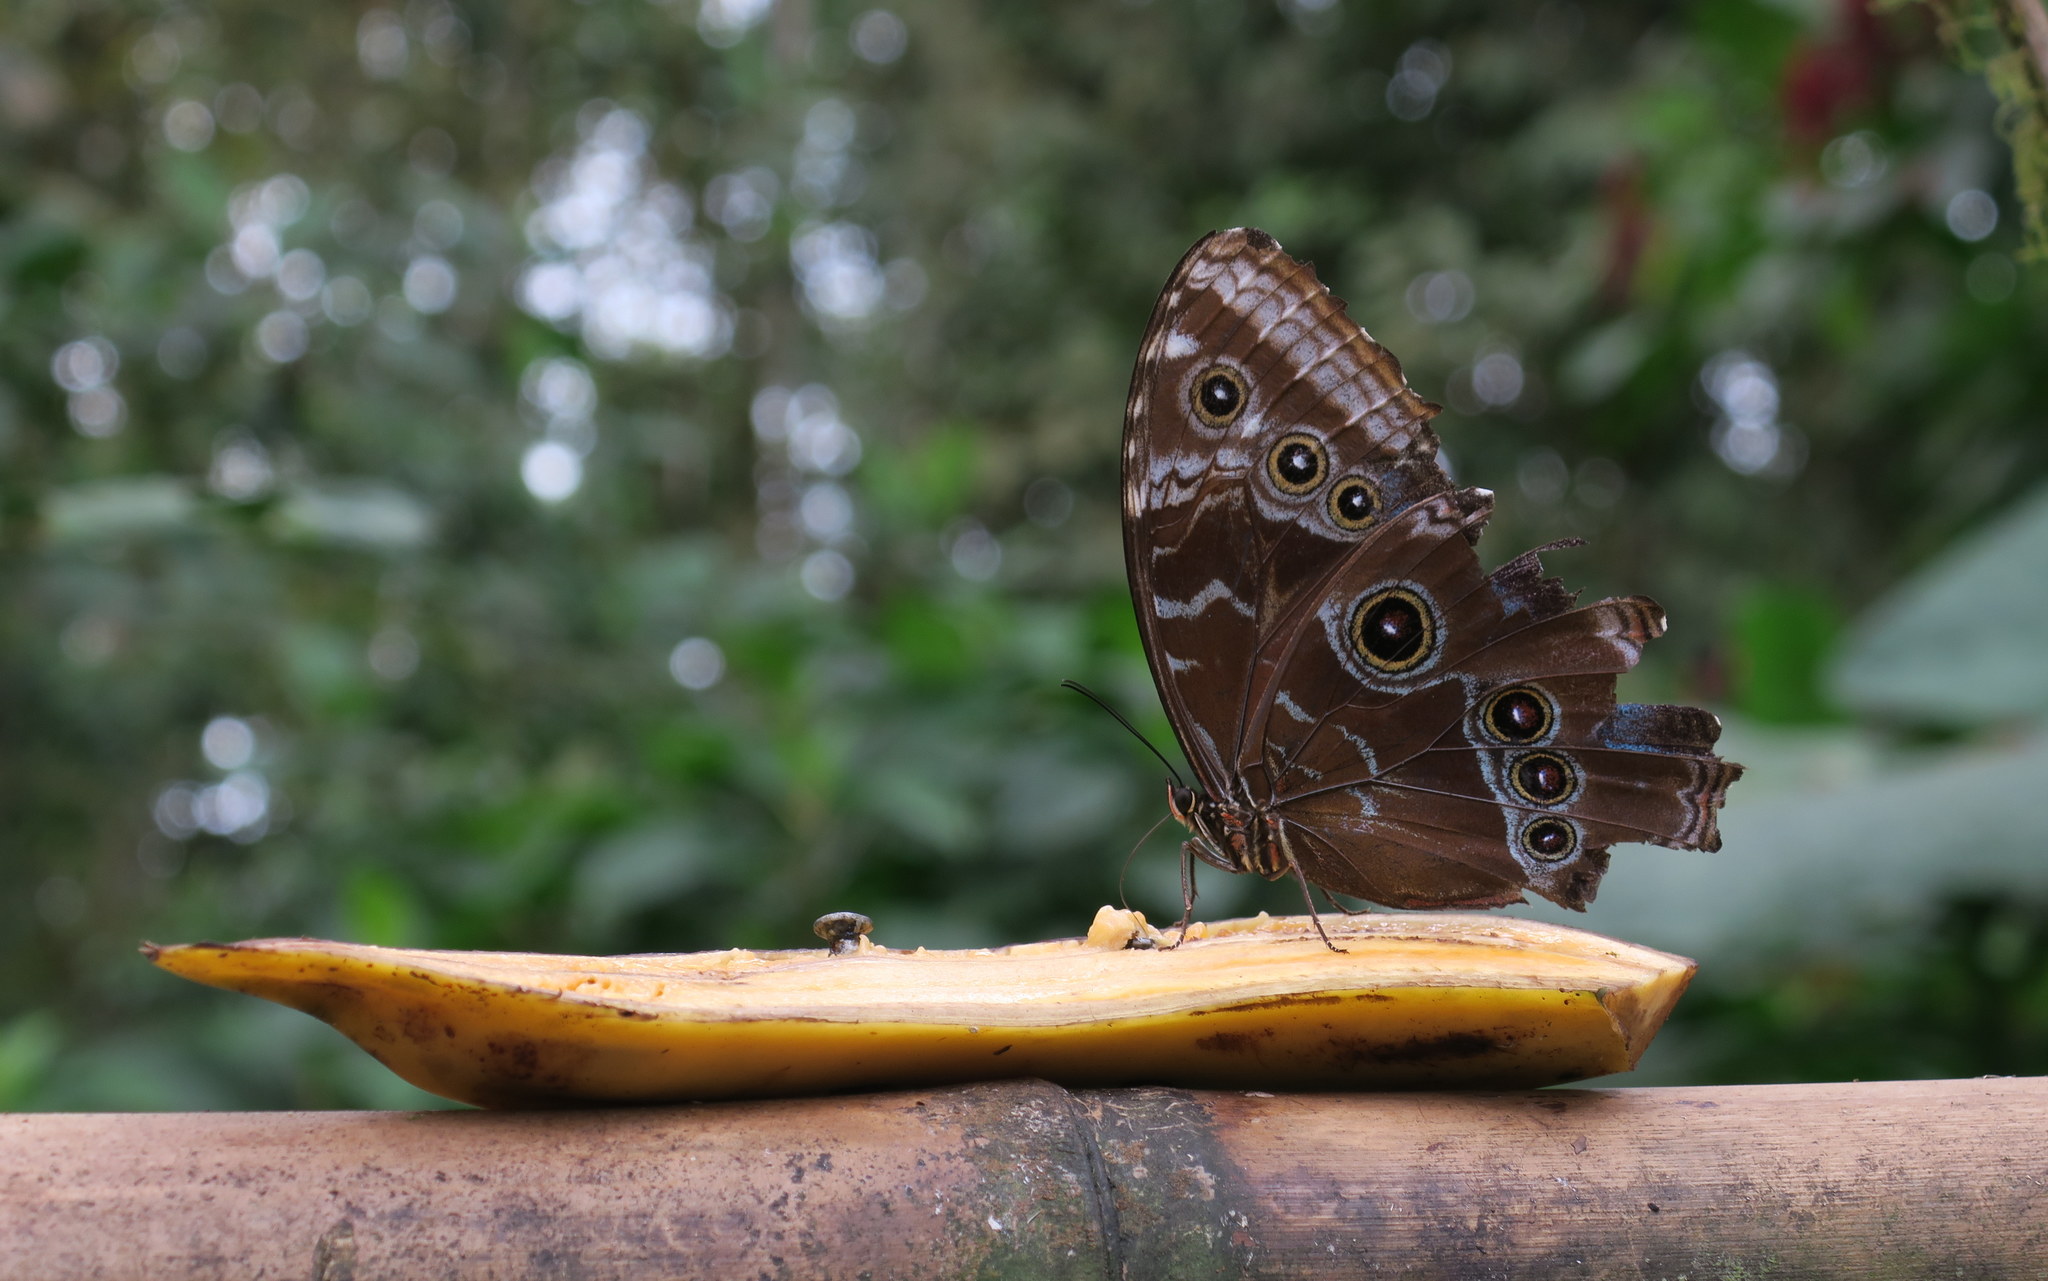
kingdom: Animalia
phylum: Arthropoda
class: Insecta
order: Lepidoptera
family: Nymphalidae
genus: Morpho
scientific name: Morpho helenor
